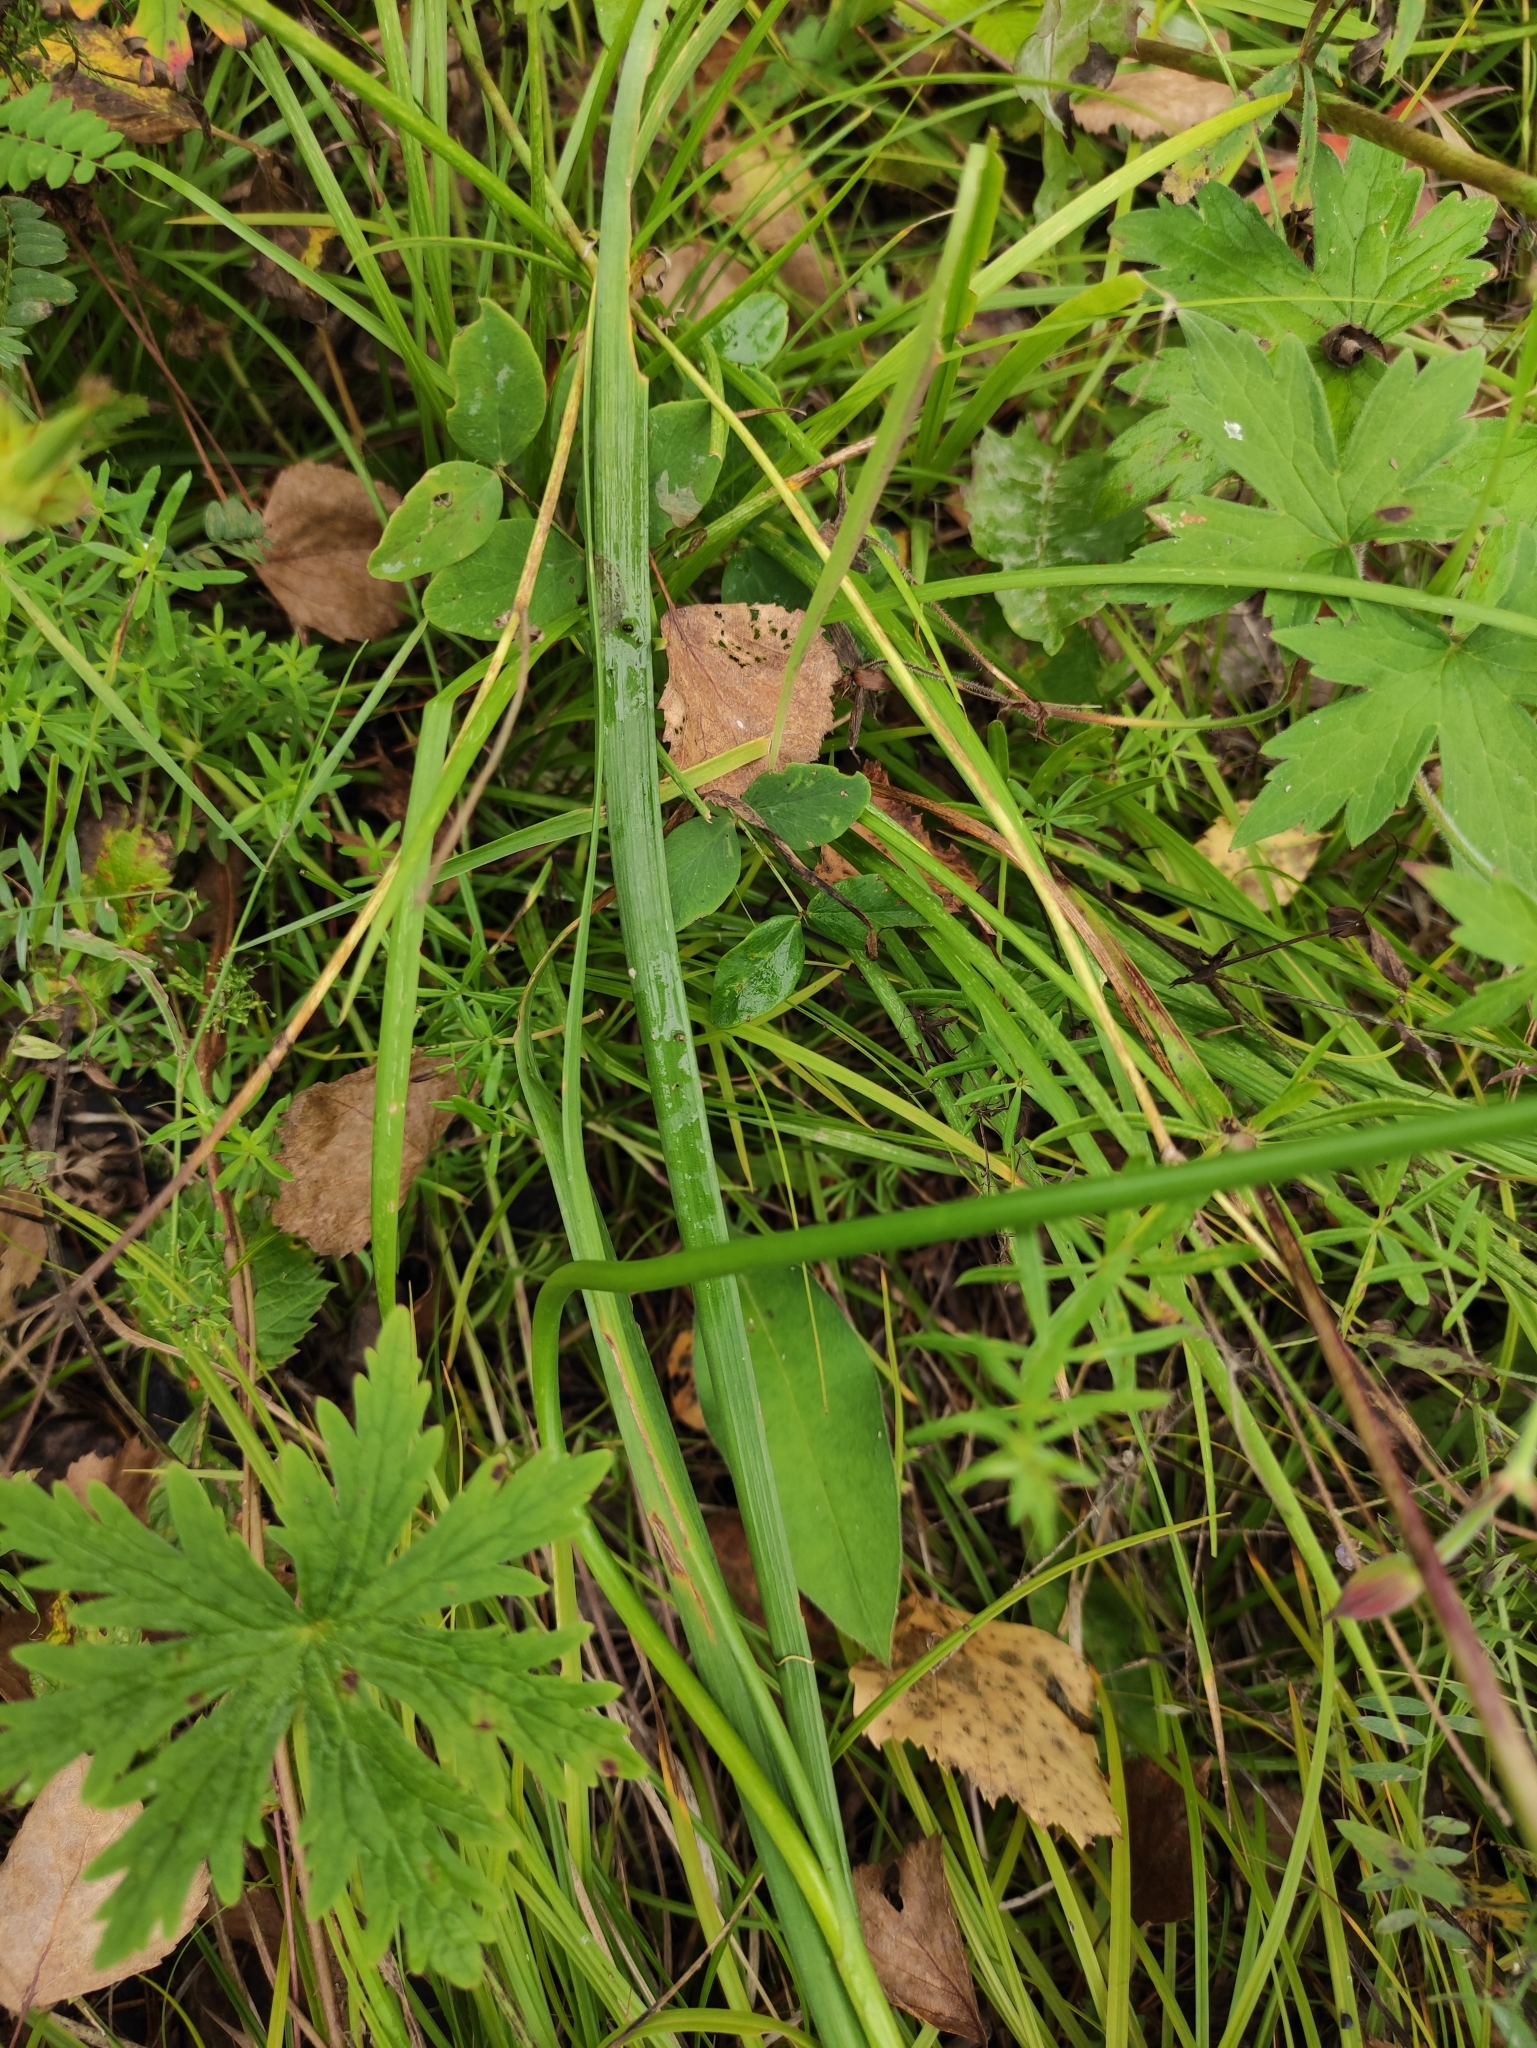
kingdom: Plantae
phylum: Tracheophyta
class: Liliopsida
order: Asparagales
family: Amaryllidaceae
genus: Allium
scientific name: Allium splendens
